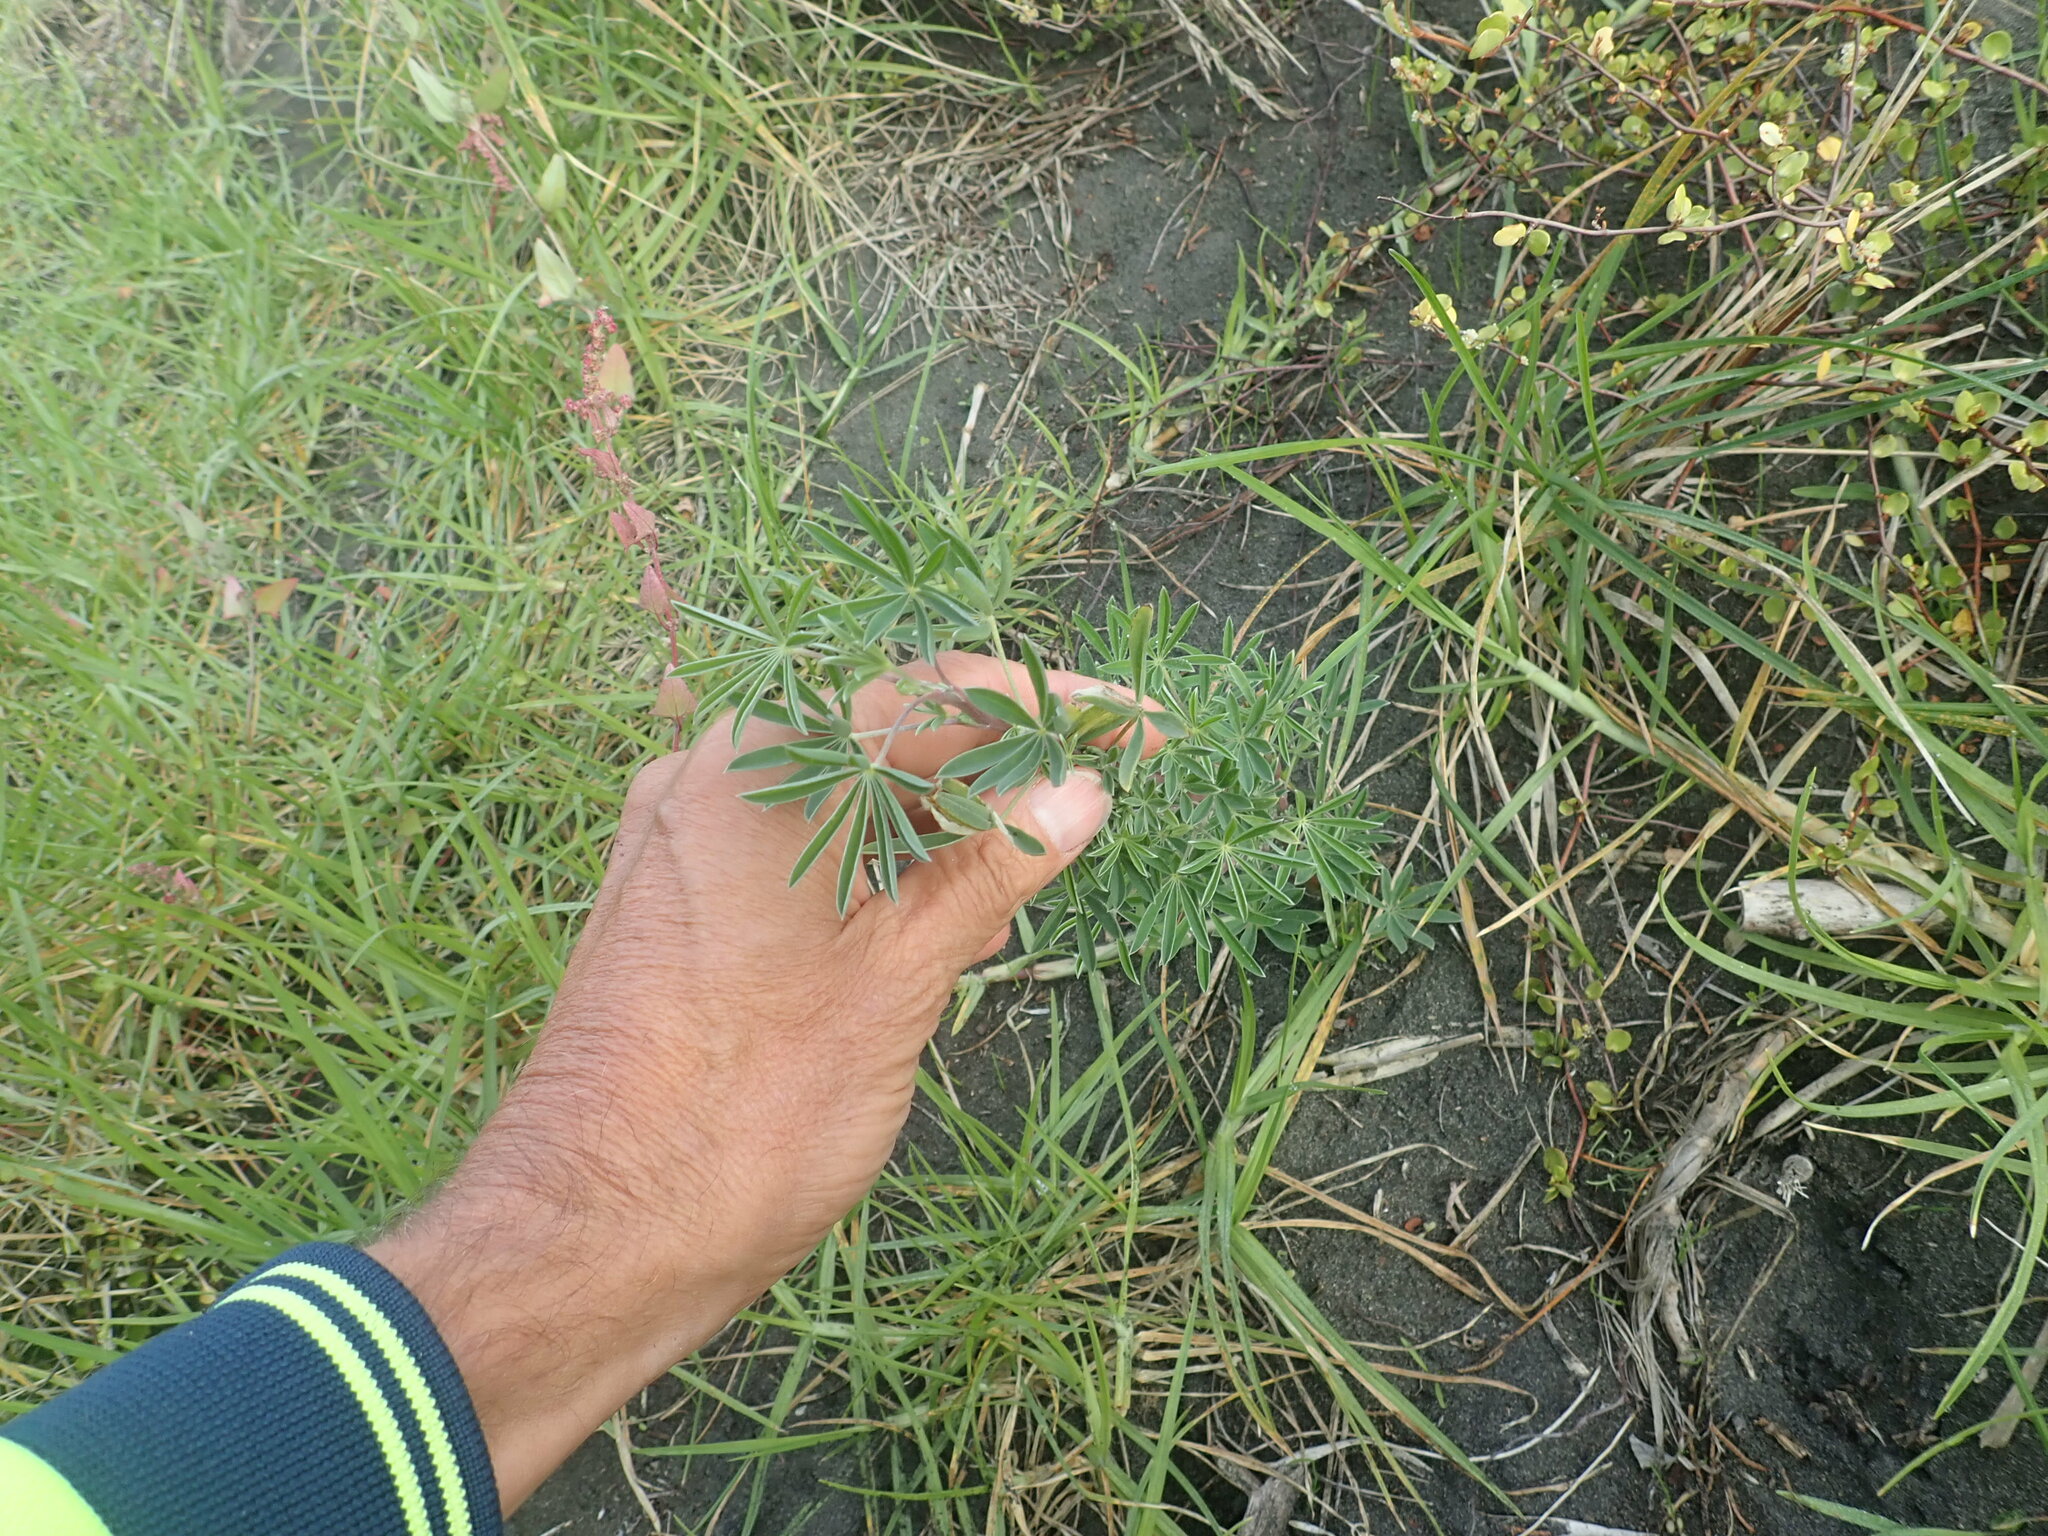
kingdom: Plantae
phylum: Tracheophyta
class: Magnoliopsida
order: Fabales
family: Fabaceae
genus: Lupinus
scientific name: Lupinus arboreus
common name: Yellow bush lupine
